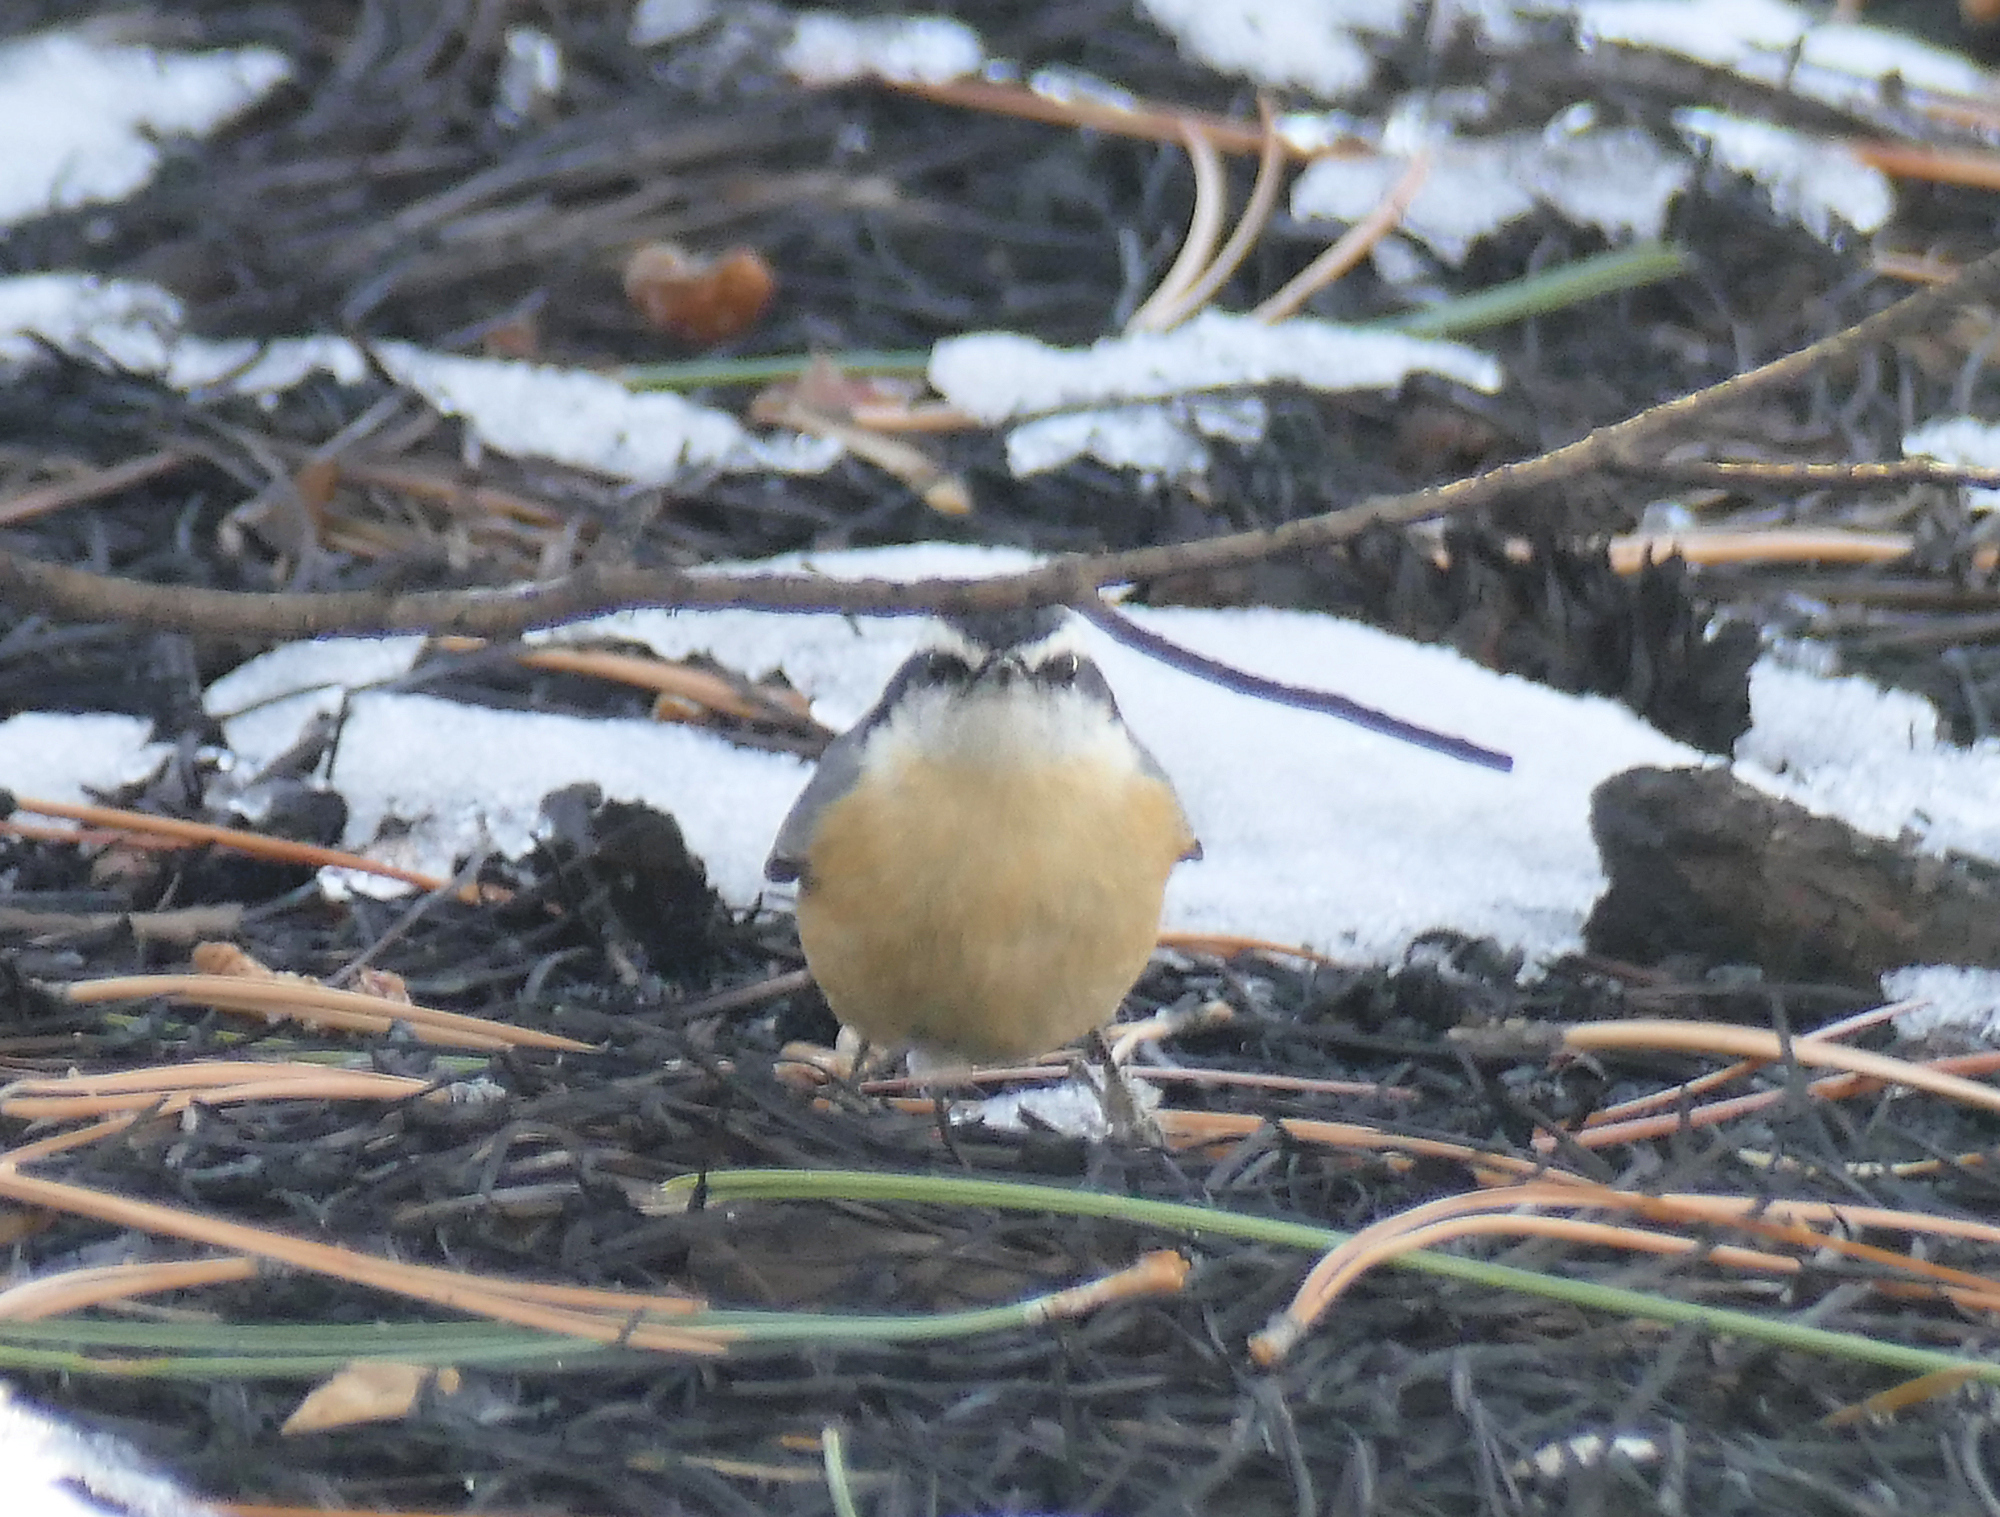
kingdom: Animalia
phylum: Chordata
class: Aves
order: Passeriformes
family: Sittidae
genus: Sitta
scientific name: Sitta canadensis
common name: Red-breasted nuthatch
